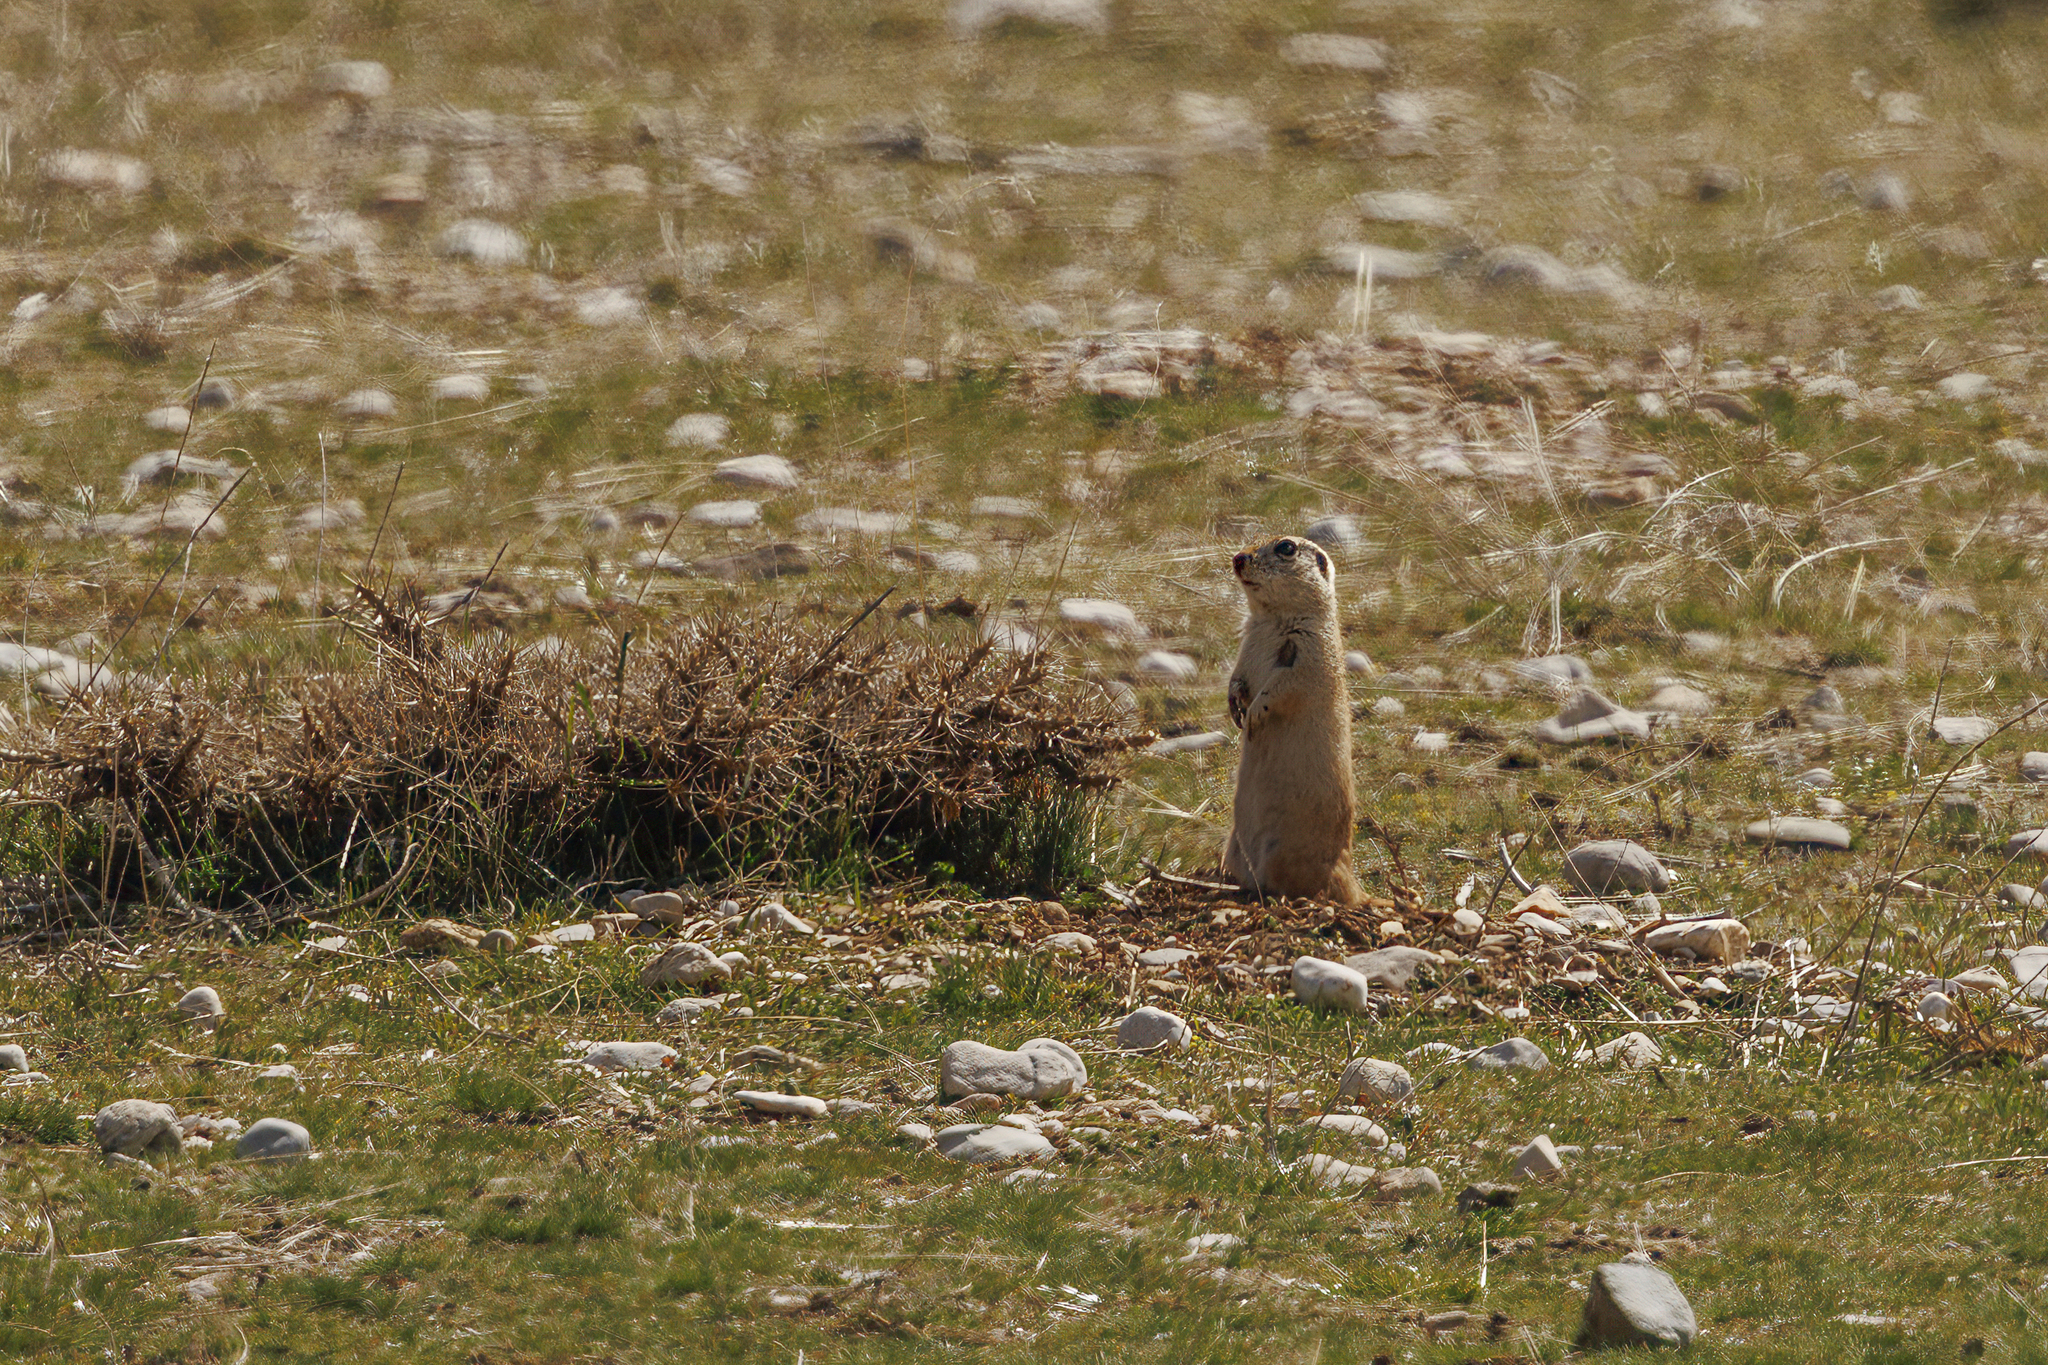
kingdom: Animalia
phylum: Chordata
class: Mammalia
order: Rodentia
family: Sciuridae
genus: Spermophilus
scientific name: Spermophilus taurensis
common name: Taurus ground squirrel
